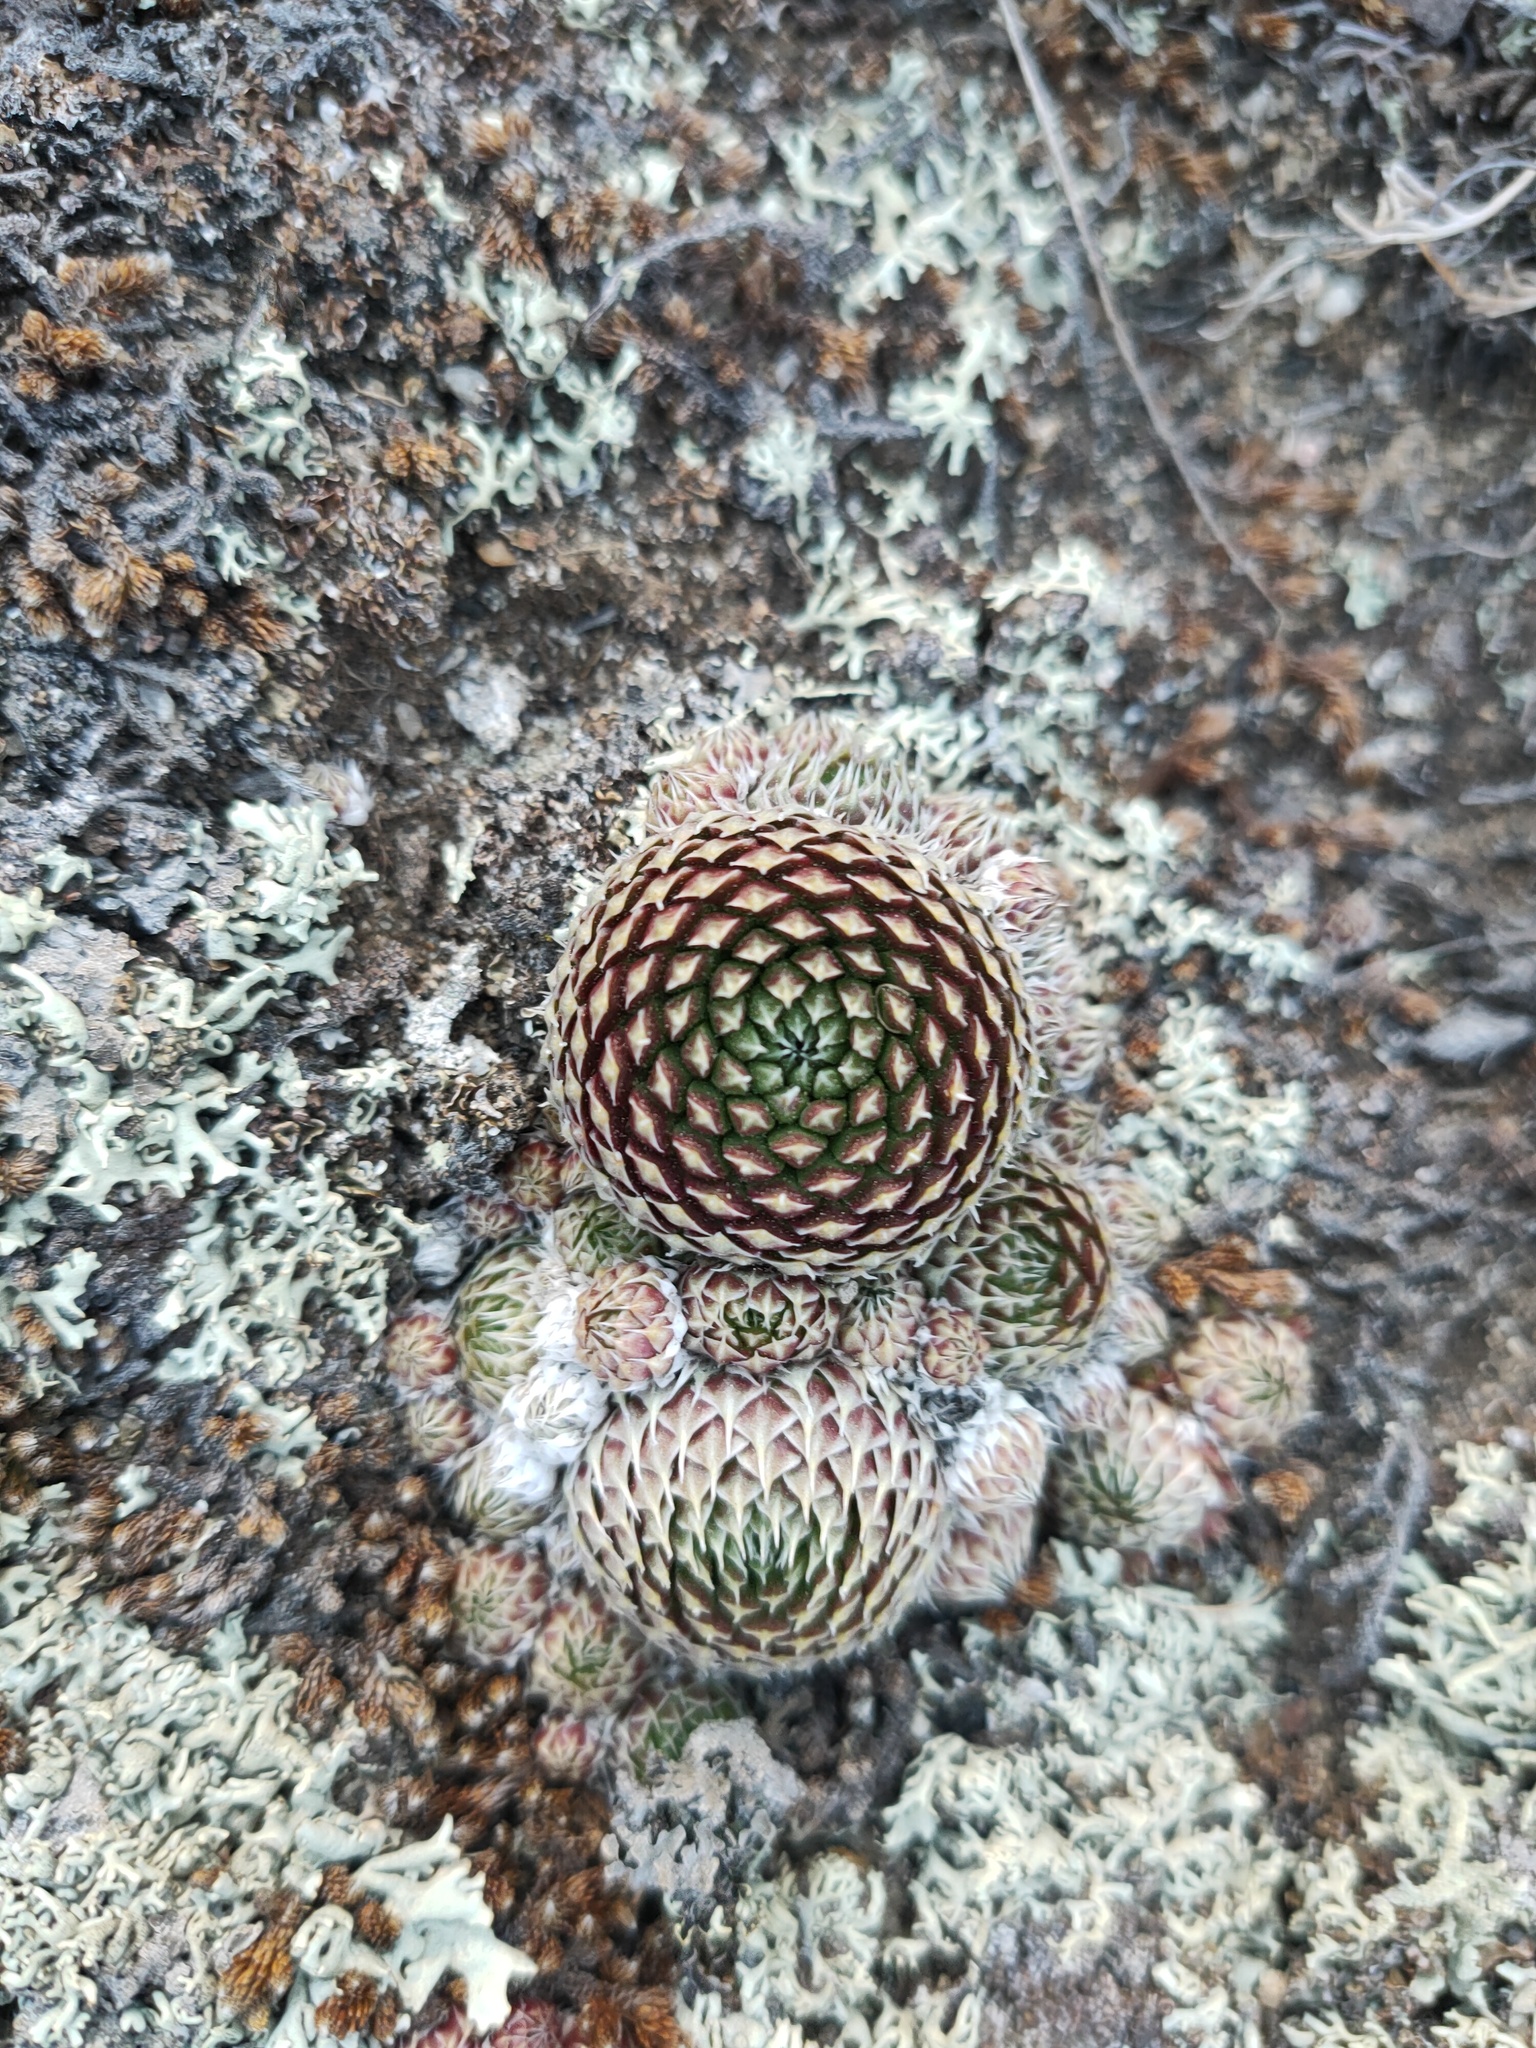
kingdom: Plantae
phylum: Tracheophyta
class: Magnoliopsida
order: Saxifragales
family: Crassulaceae
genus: Orostachys
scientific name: Orostachys spinosa
